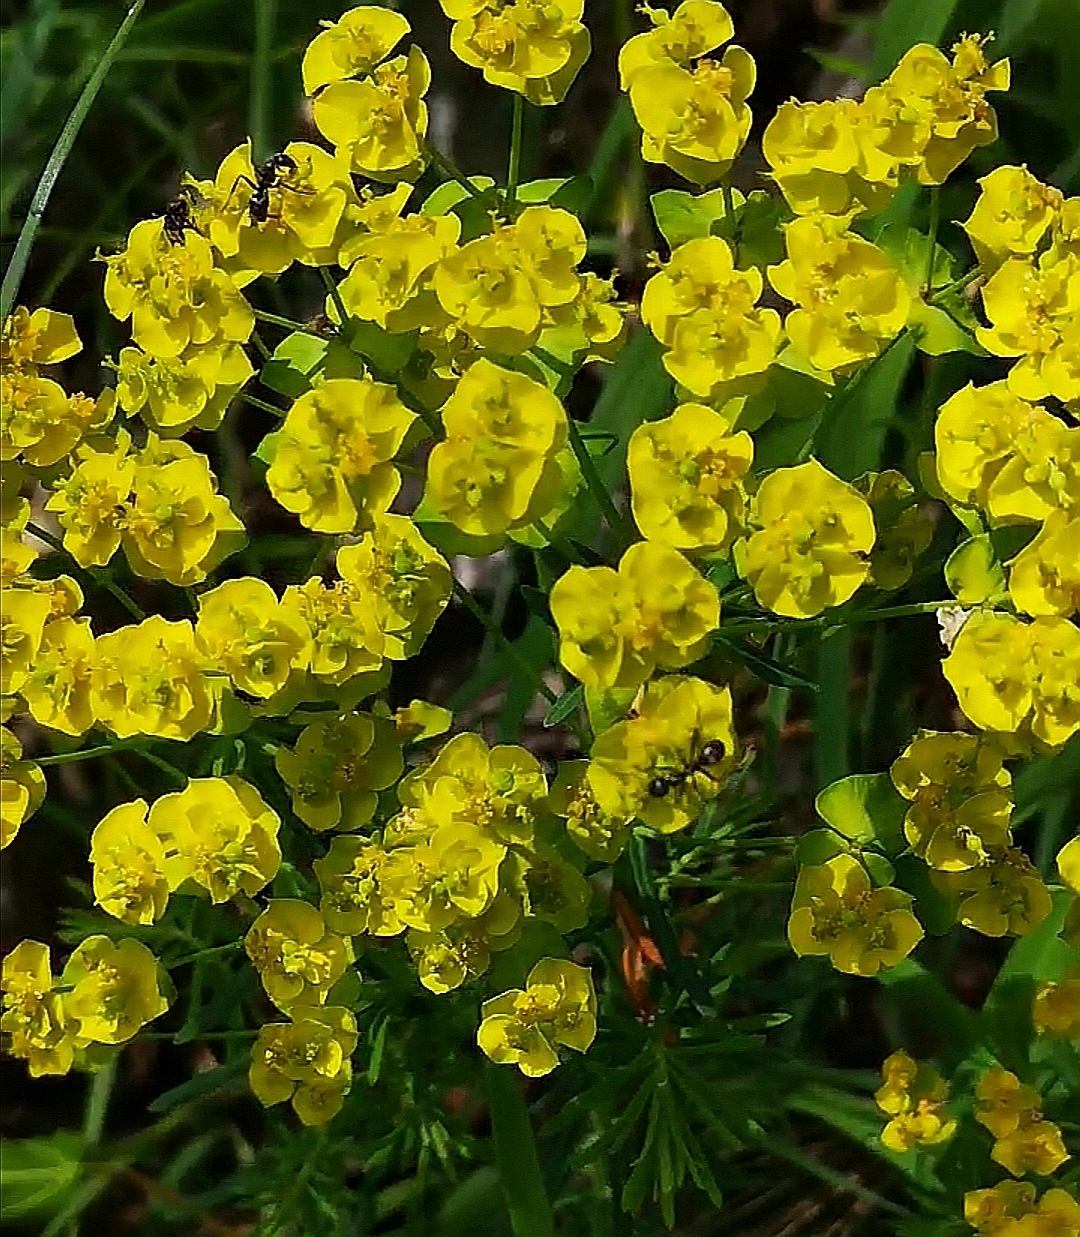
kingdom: Plantae
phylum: Tracheophyta
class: Magnoliopsida
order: Malpighiales
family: Euphorbiaceae
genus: Euphorbia
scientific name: Euphorbia cyparissias
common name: Cypress spurge
